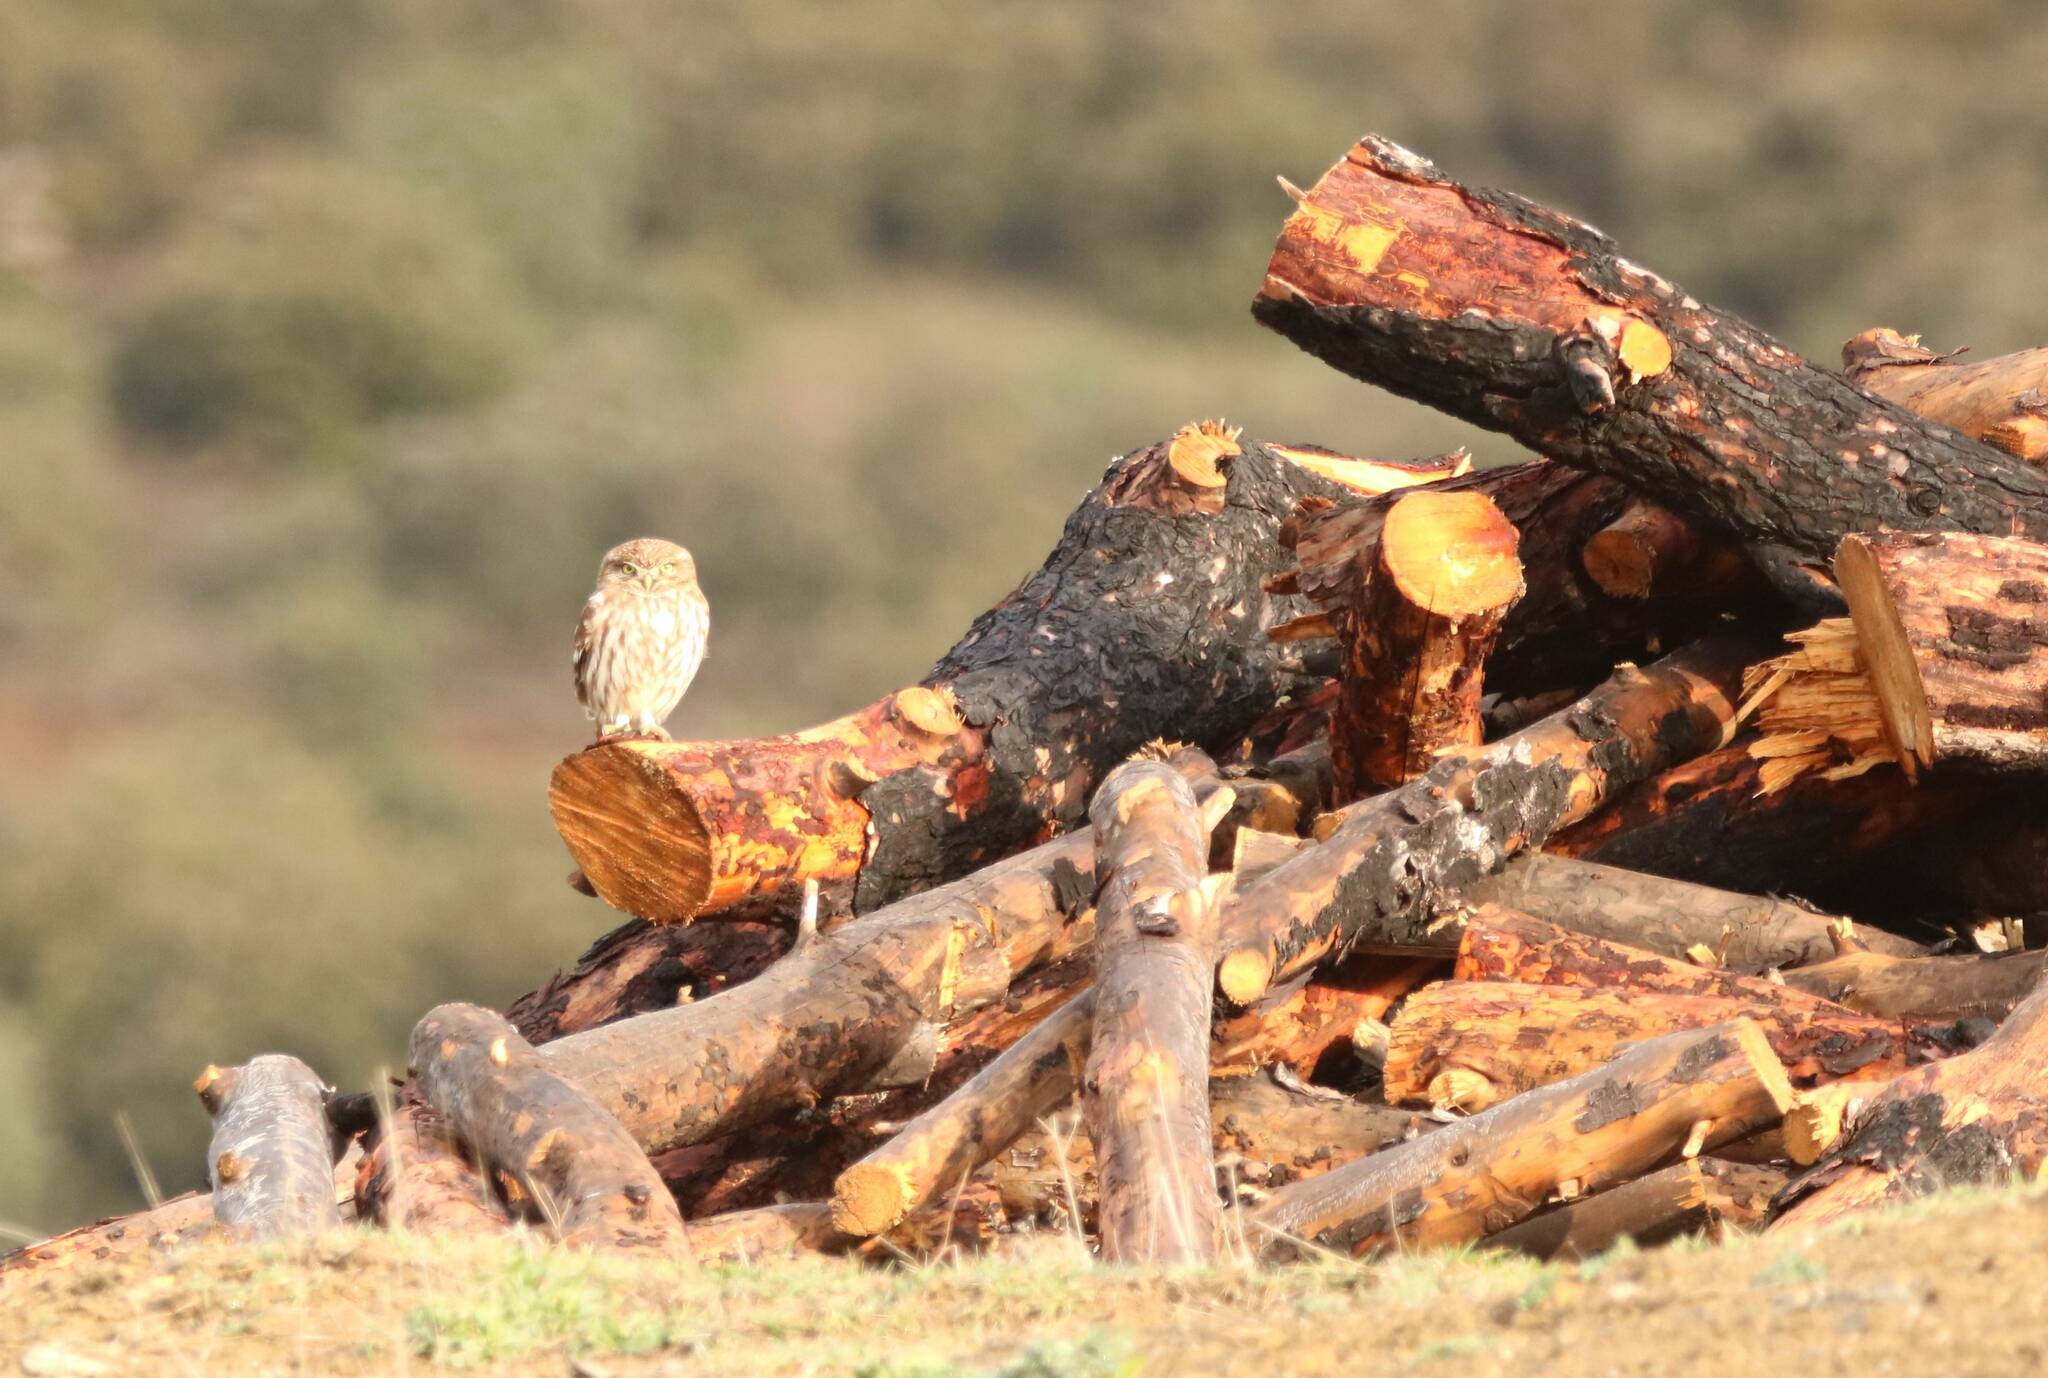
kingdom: Animalia
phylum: Chordata
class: Aves
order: Strigiformes
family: Strigidae
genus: Athene
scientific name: Athene noctua
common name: Little owl
